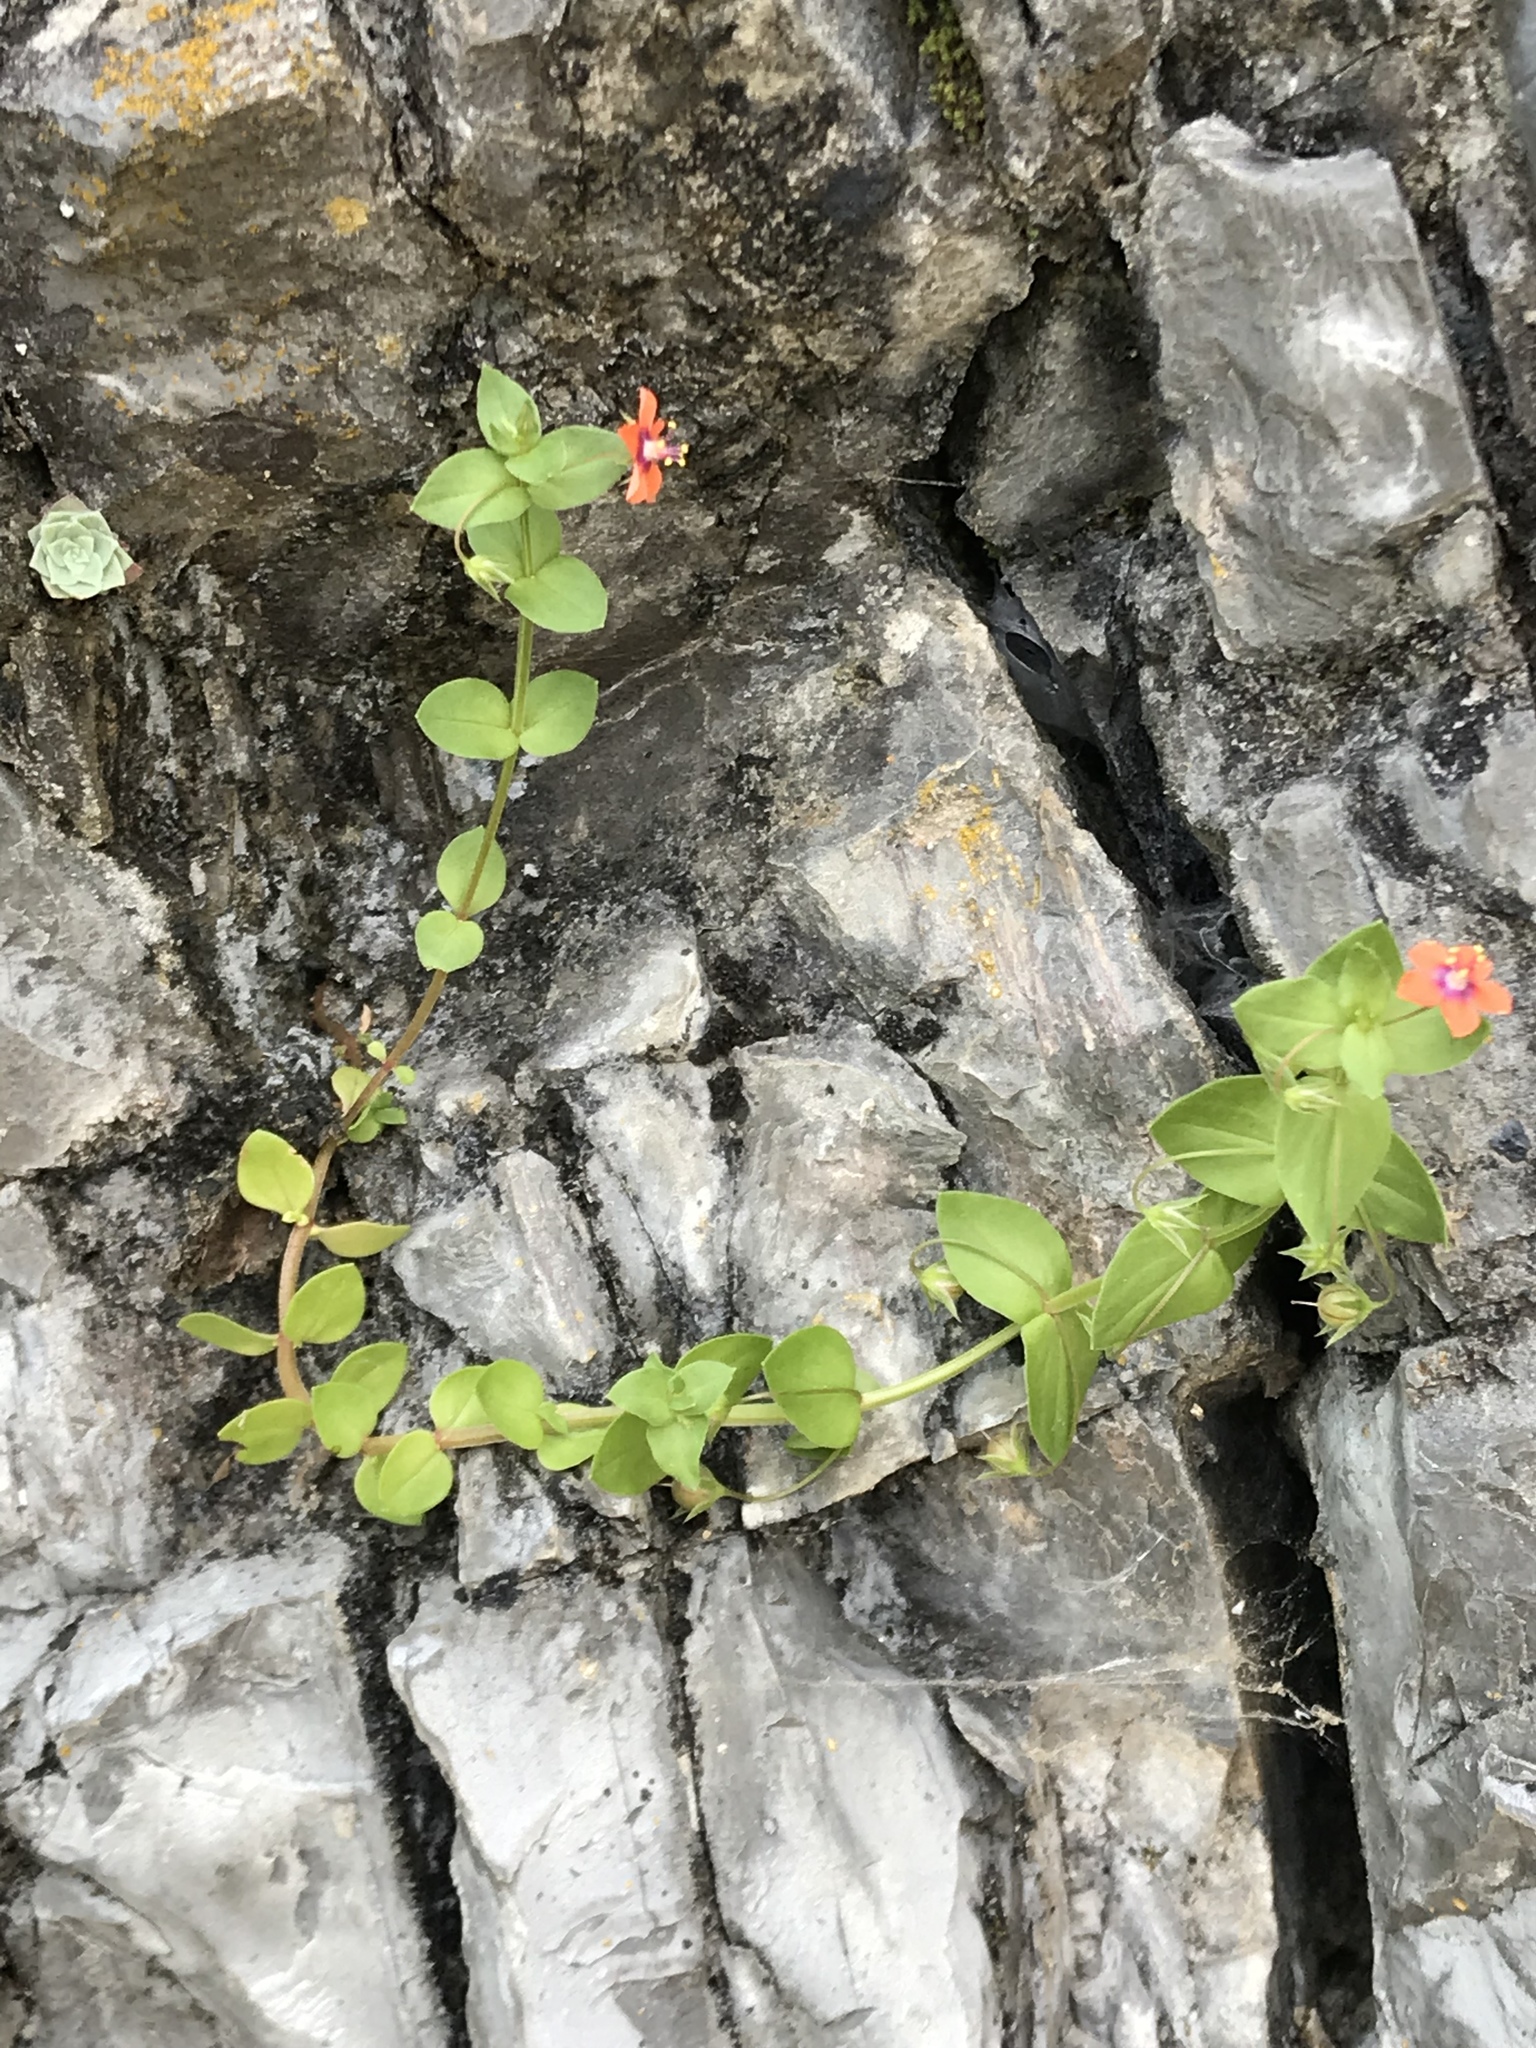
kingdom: Plantae
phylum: Tracheophyta
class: Magnoliopsida
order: Ericales
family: Primulaceae
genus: Lysimachia
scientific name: Lysimachia arvensis
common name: Scarlet pimpernel
